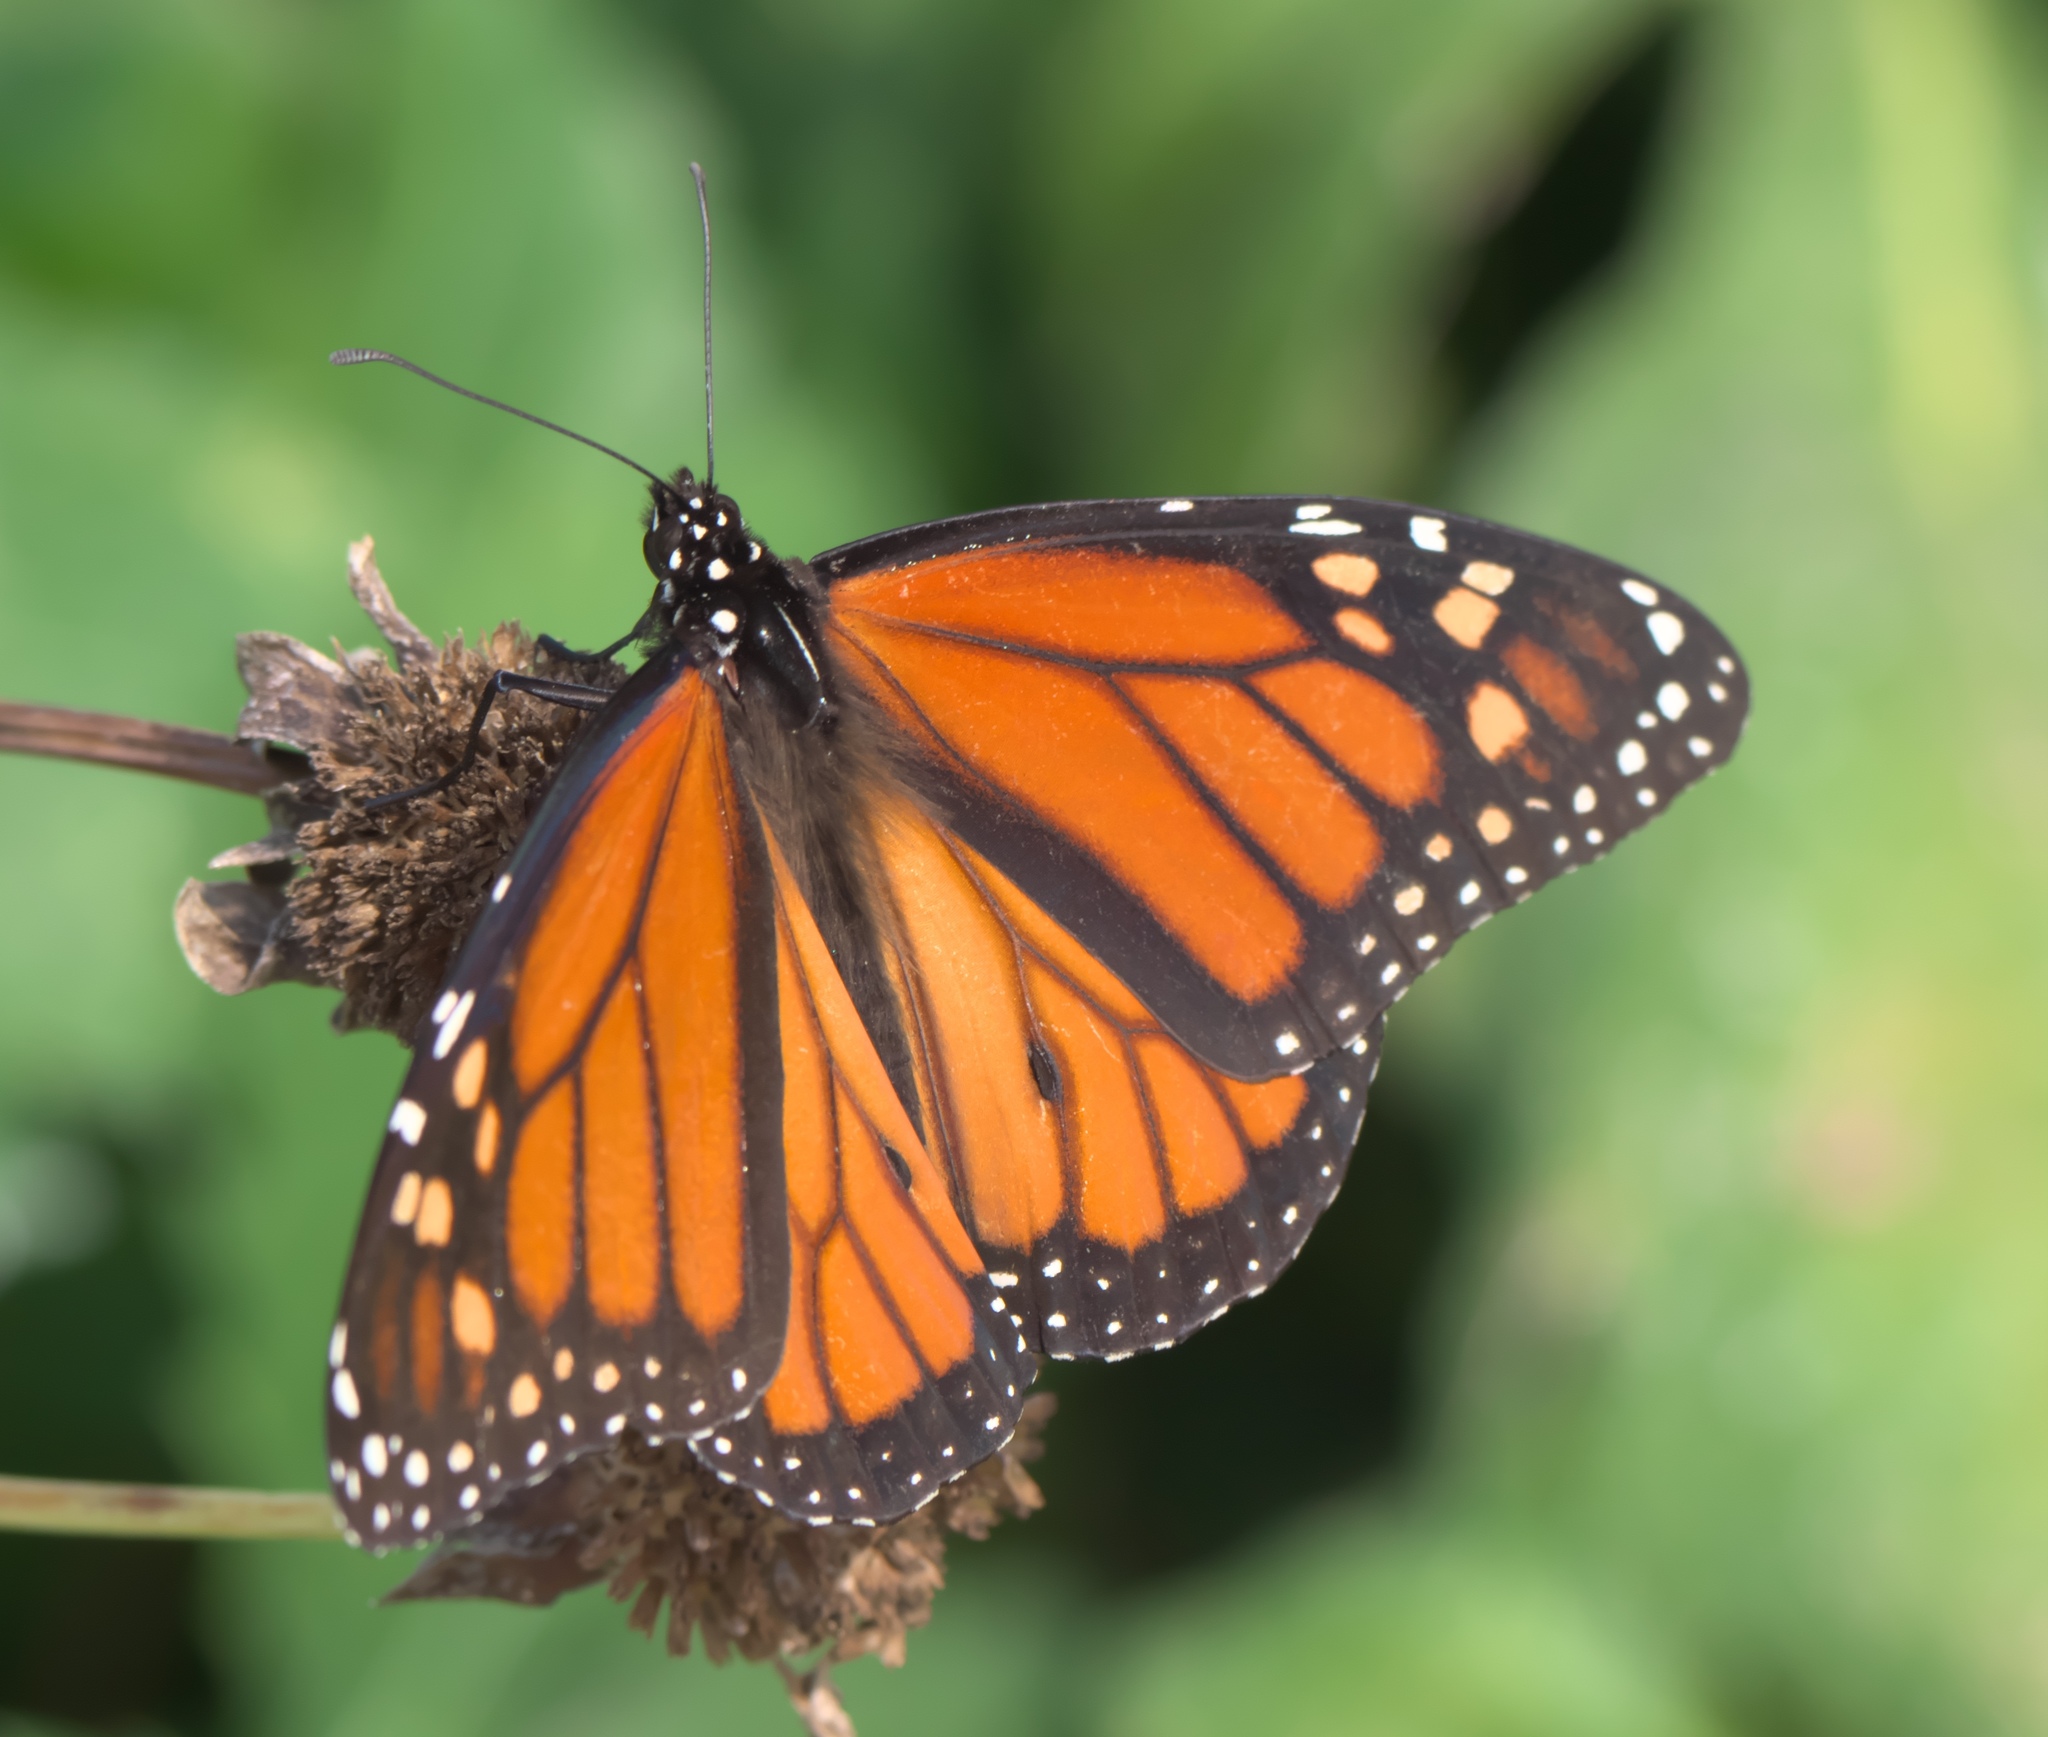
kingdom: Animalia
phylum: Arthropoda
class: Insecta
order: Lepidoptera
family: Nymphalidae
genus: Danaus
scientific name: Danaus plexippus
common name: Monarch
